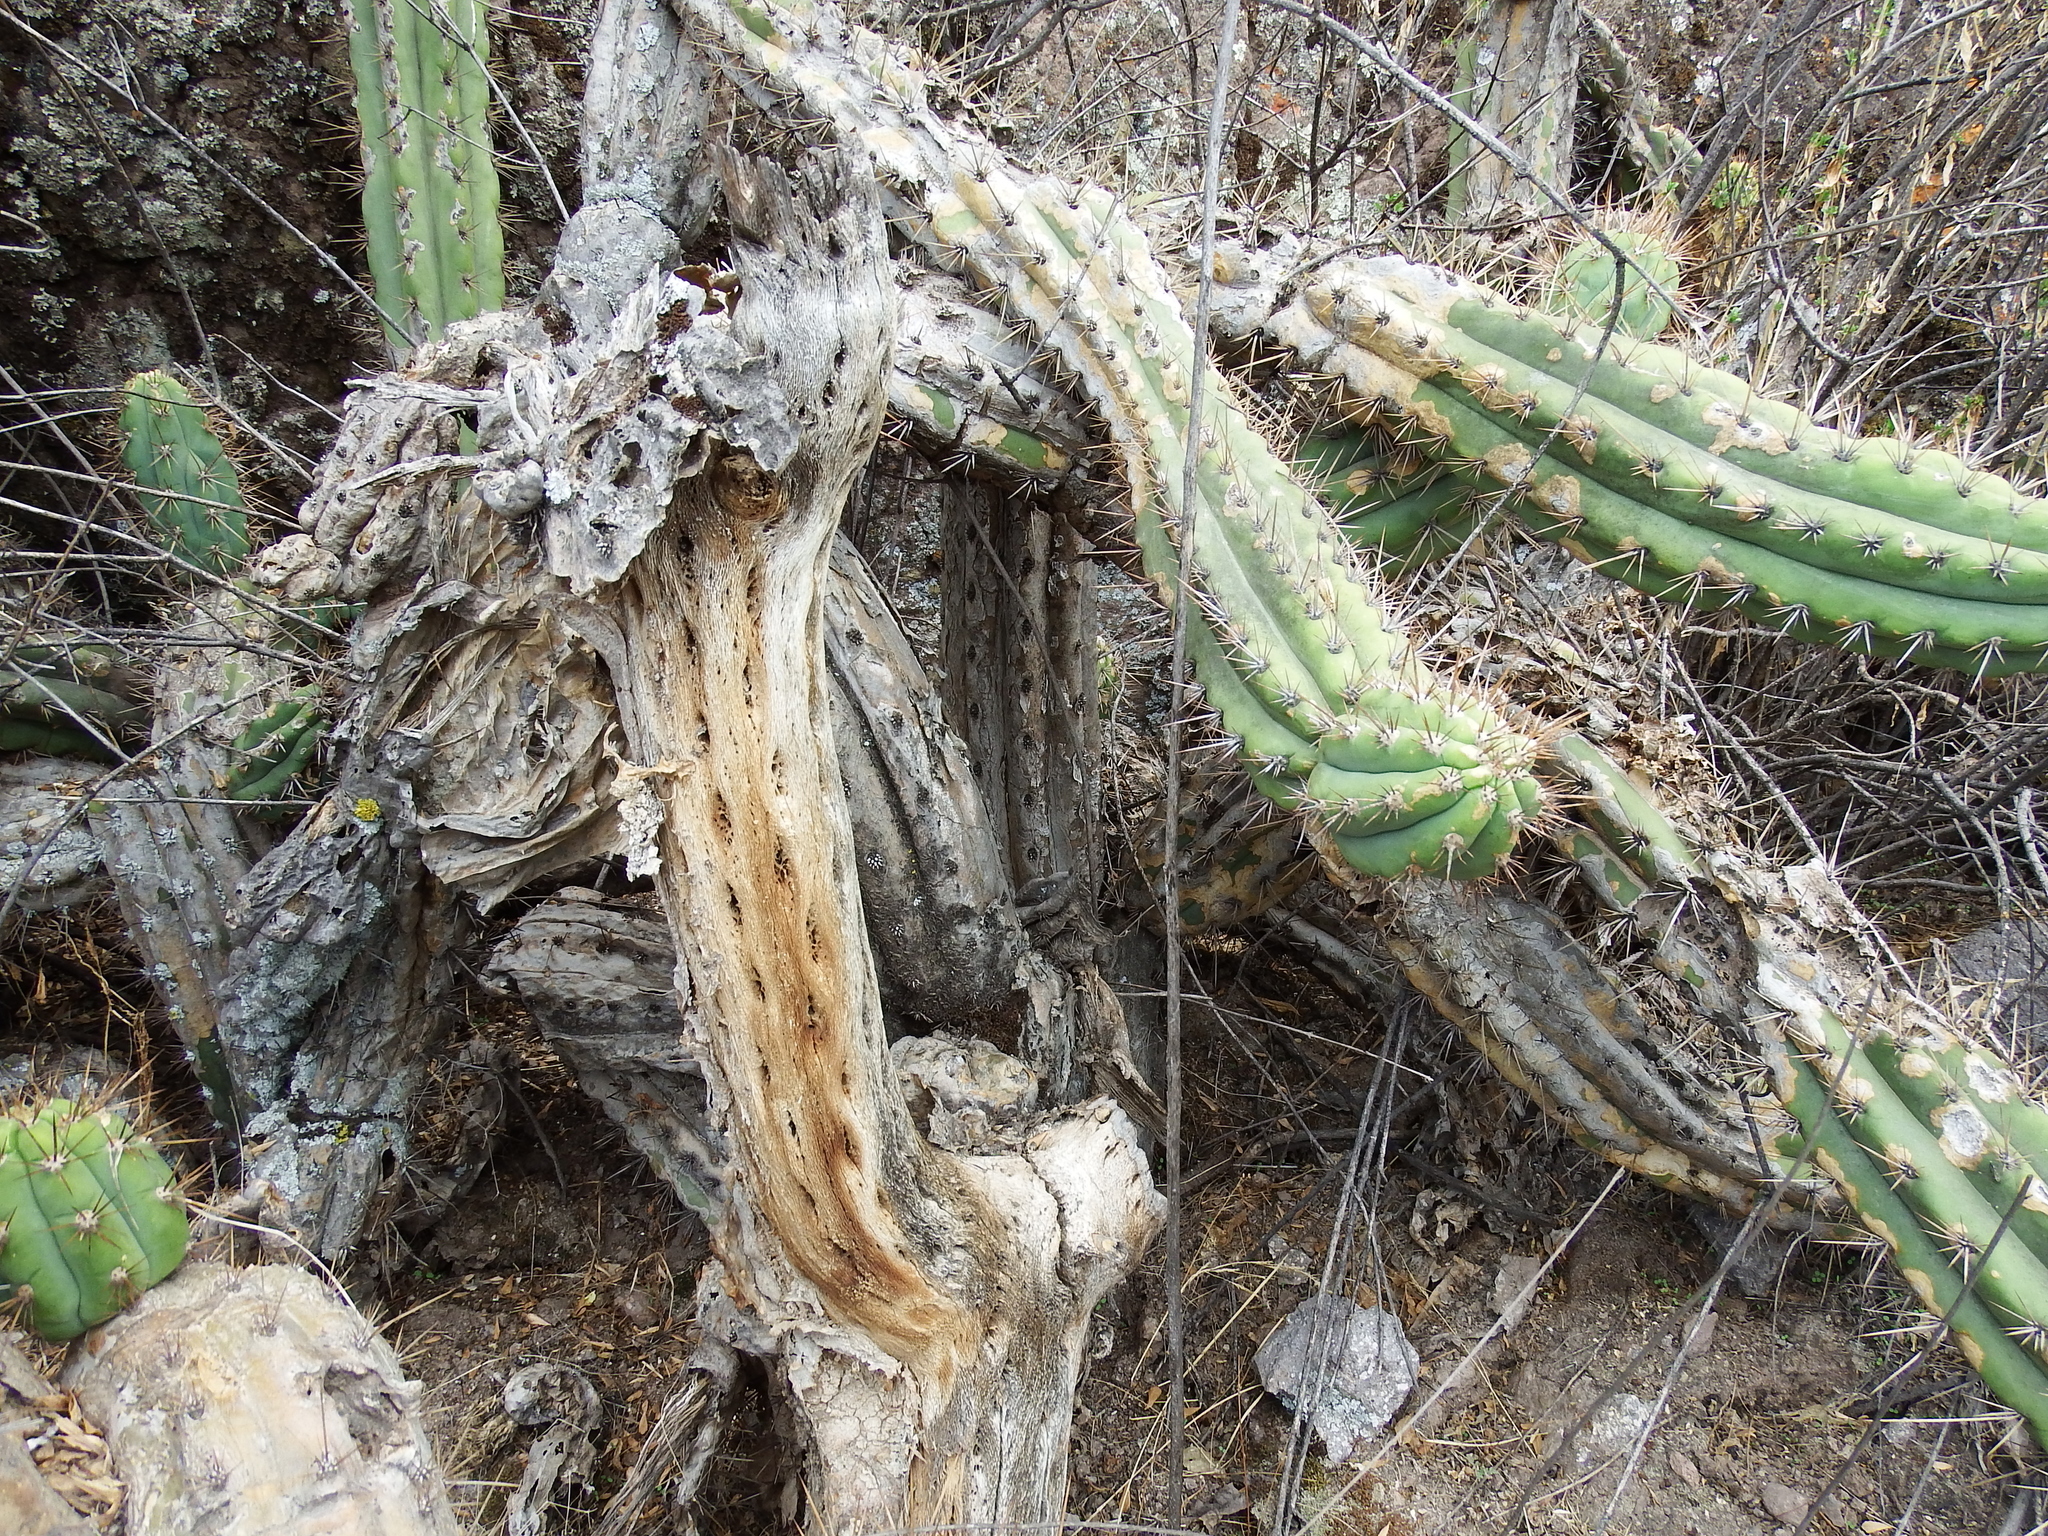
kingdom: Plantae
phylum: Tracheophyta
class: Magnoliopsida
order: Caryophyllales
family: Cactaceae
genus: Corryocactus
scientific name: Corryocactus brevistylus
